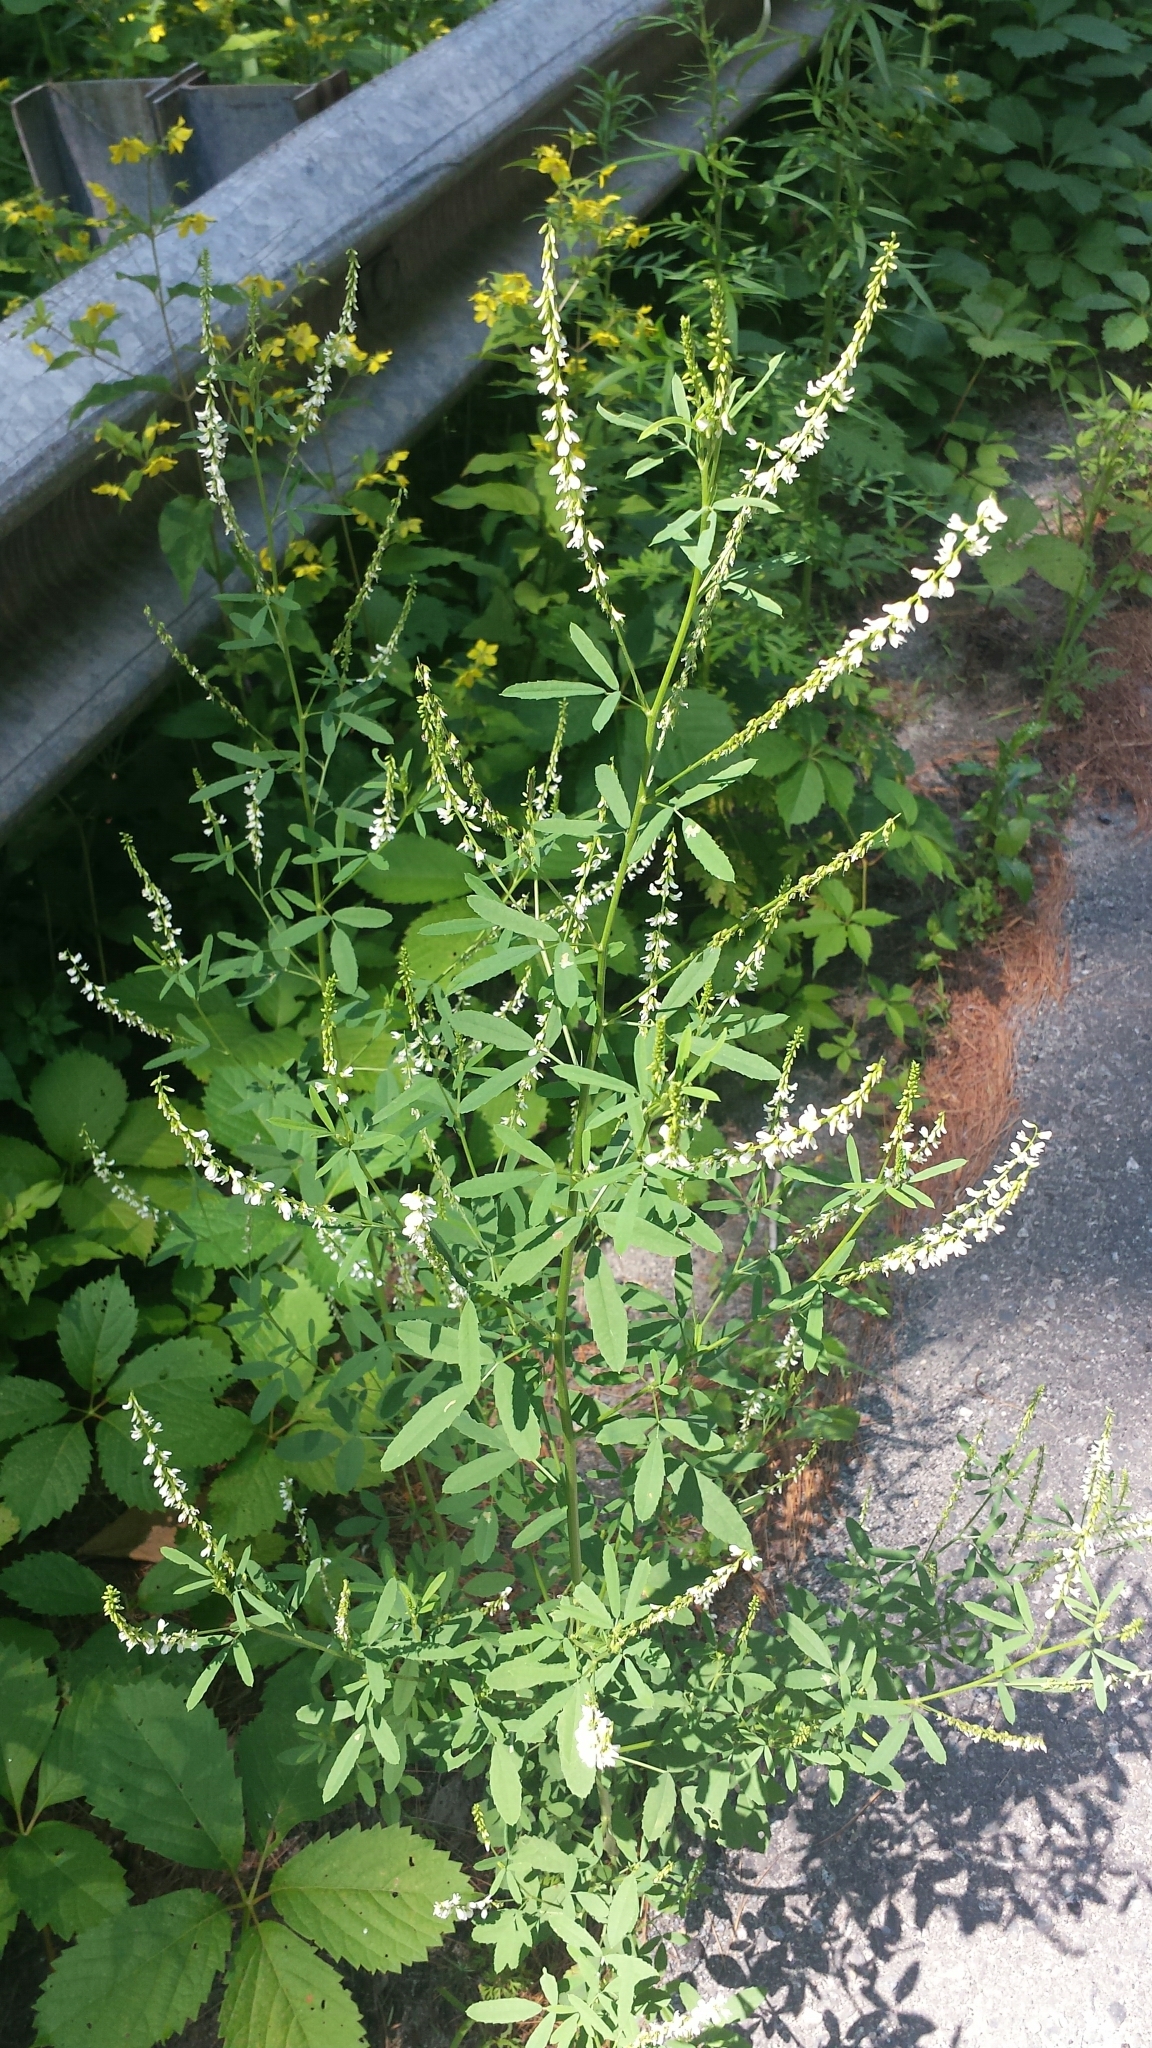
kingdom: Plantae
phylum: Tracheophyta
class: Magnoliopsida
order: Fabales
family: Fabaceae
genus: Melilotus
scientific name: Melilotus albus
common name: White melilot
